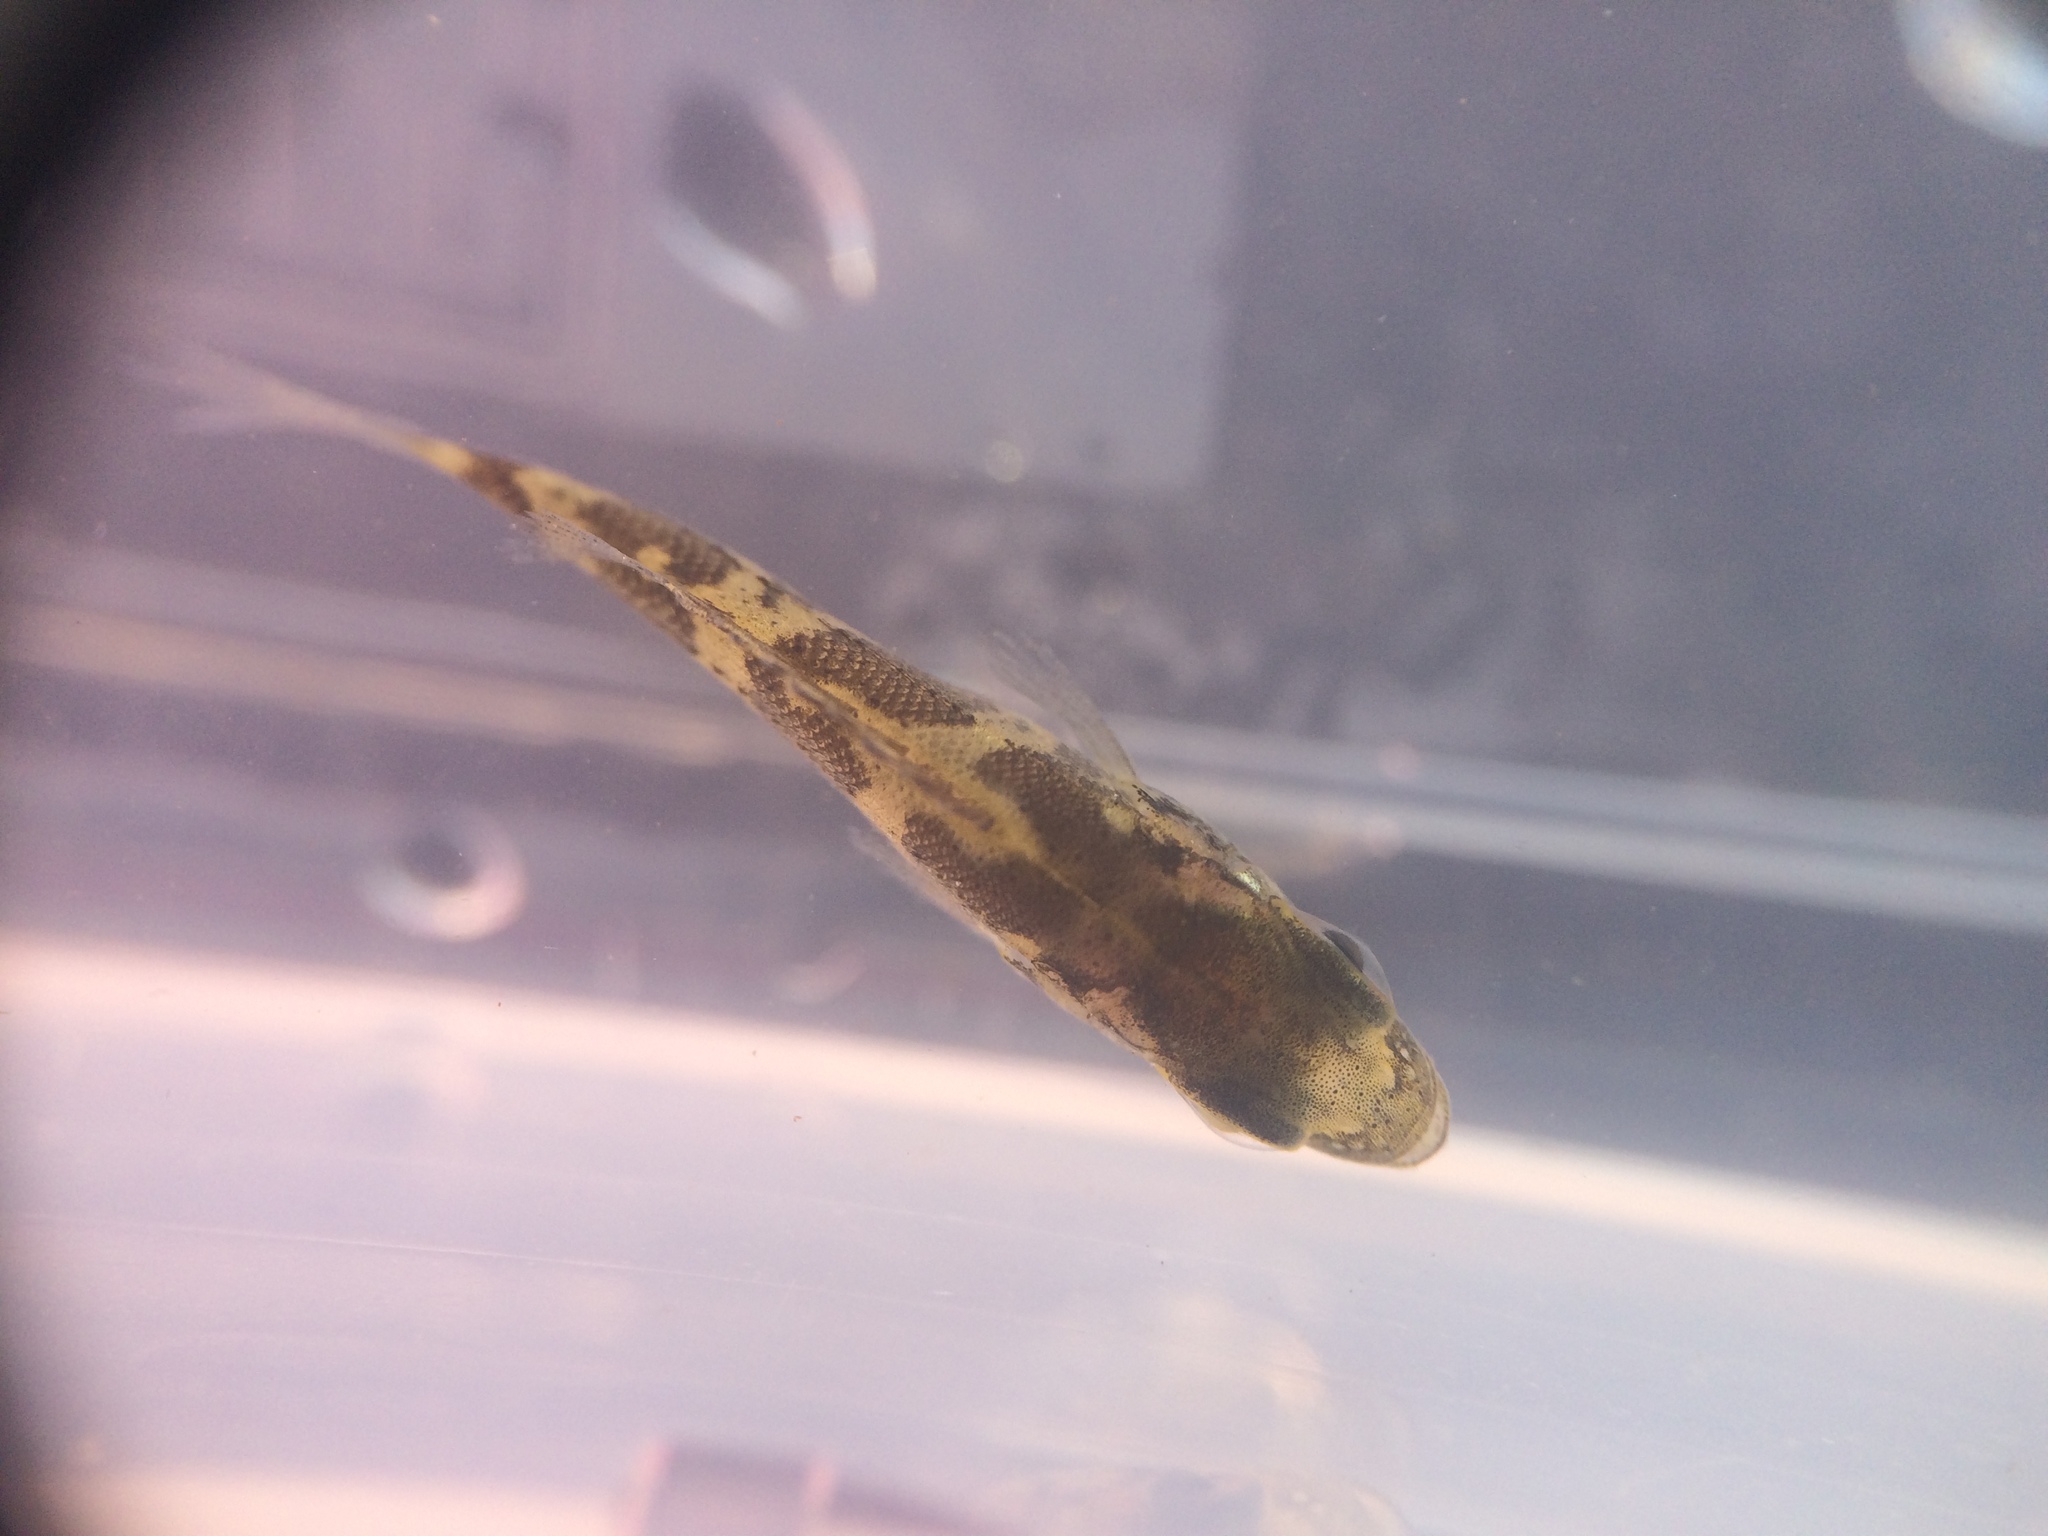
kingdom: Animalia
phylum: Chordata
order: Perciformes
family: Centrarchidae
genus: Ambloplites
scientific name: Ambloplites rupestris
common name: Rock bass
